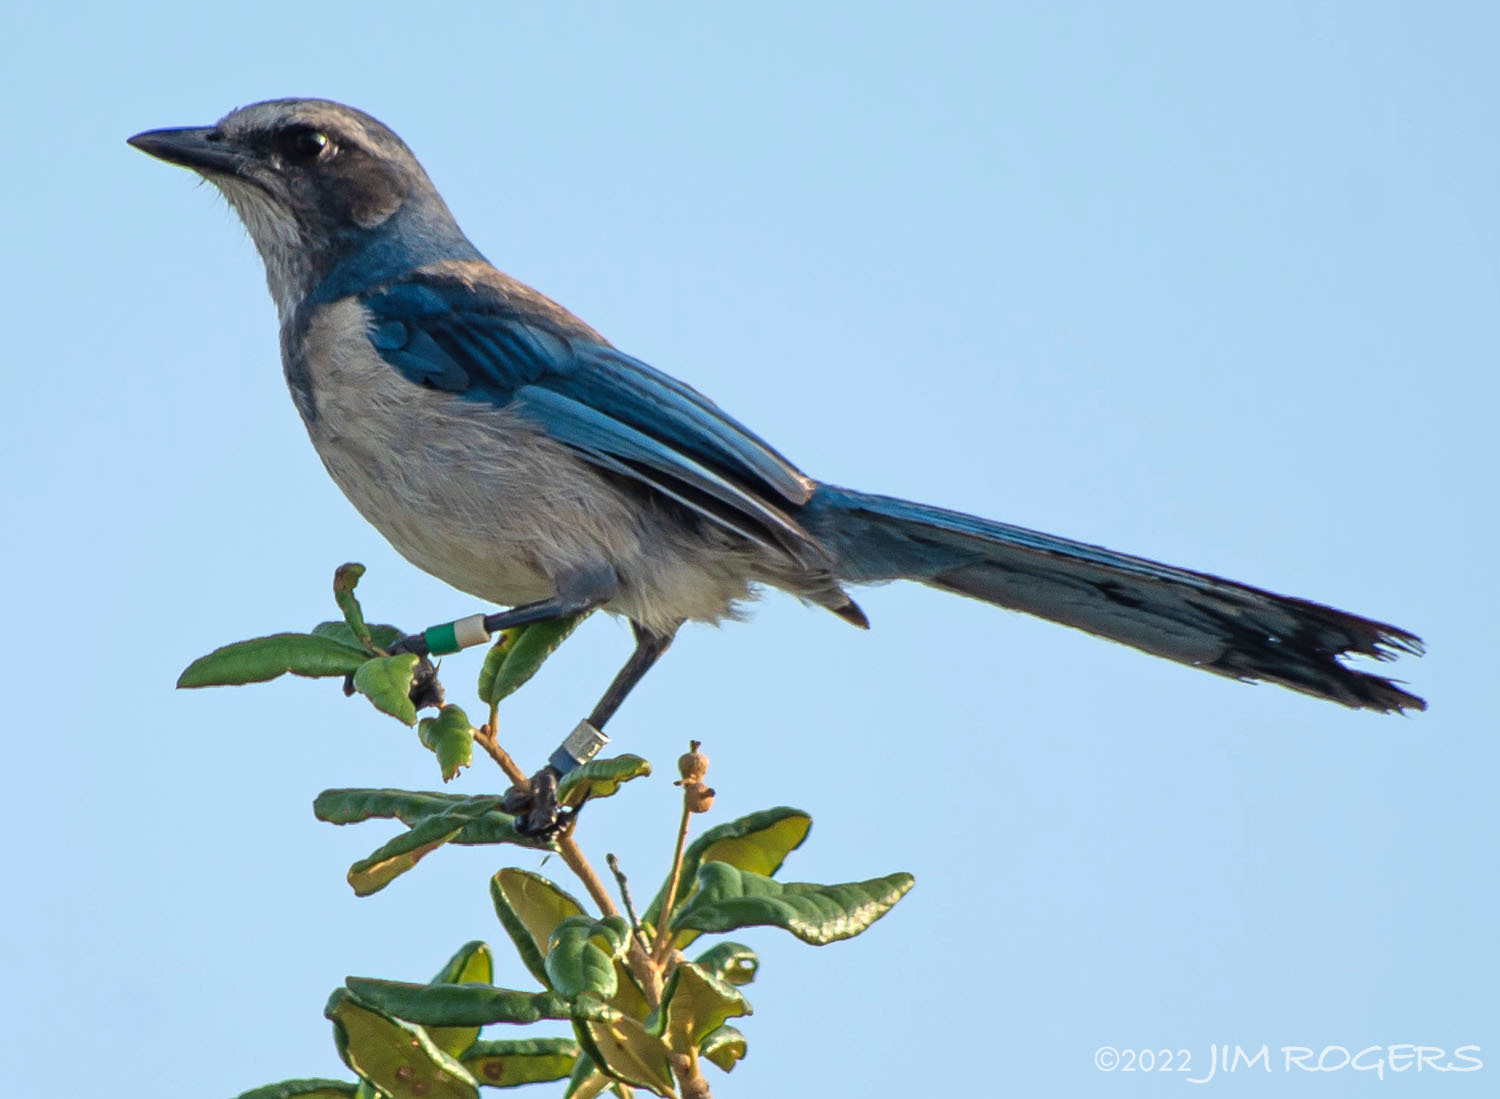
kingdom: Animalia
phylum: Chordata
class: Aves
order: Passeriformes
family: Corvidae
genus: Aphelocoma
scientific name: Aphelocoma coerulescens
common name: Florida scrub jay
